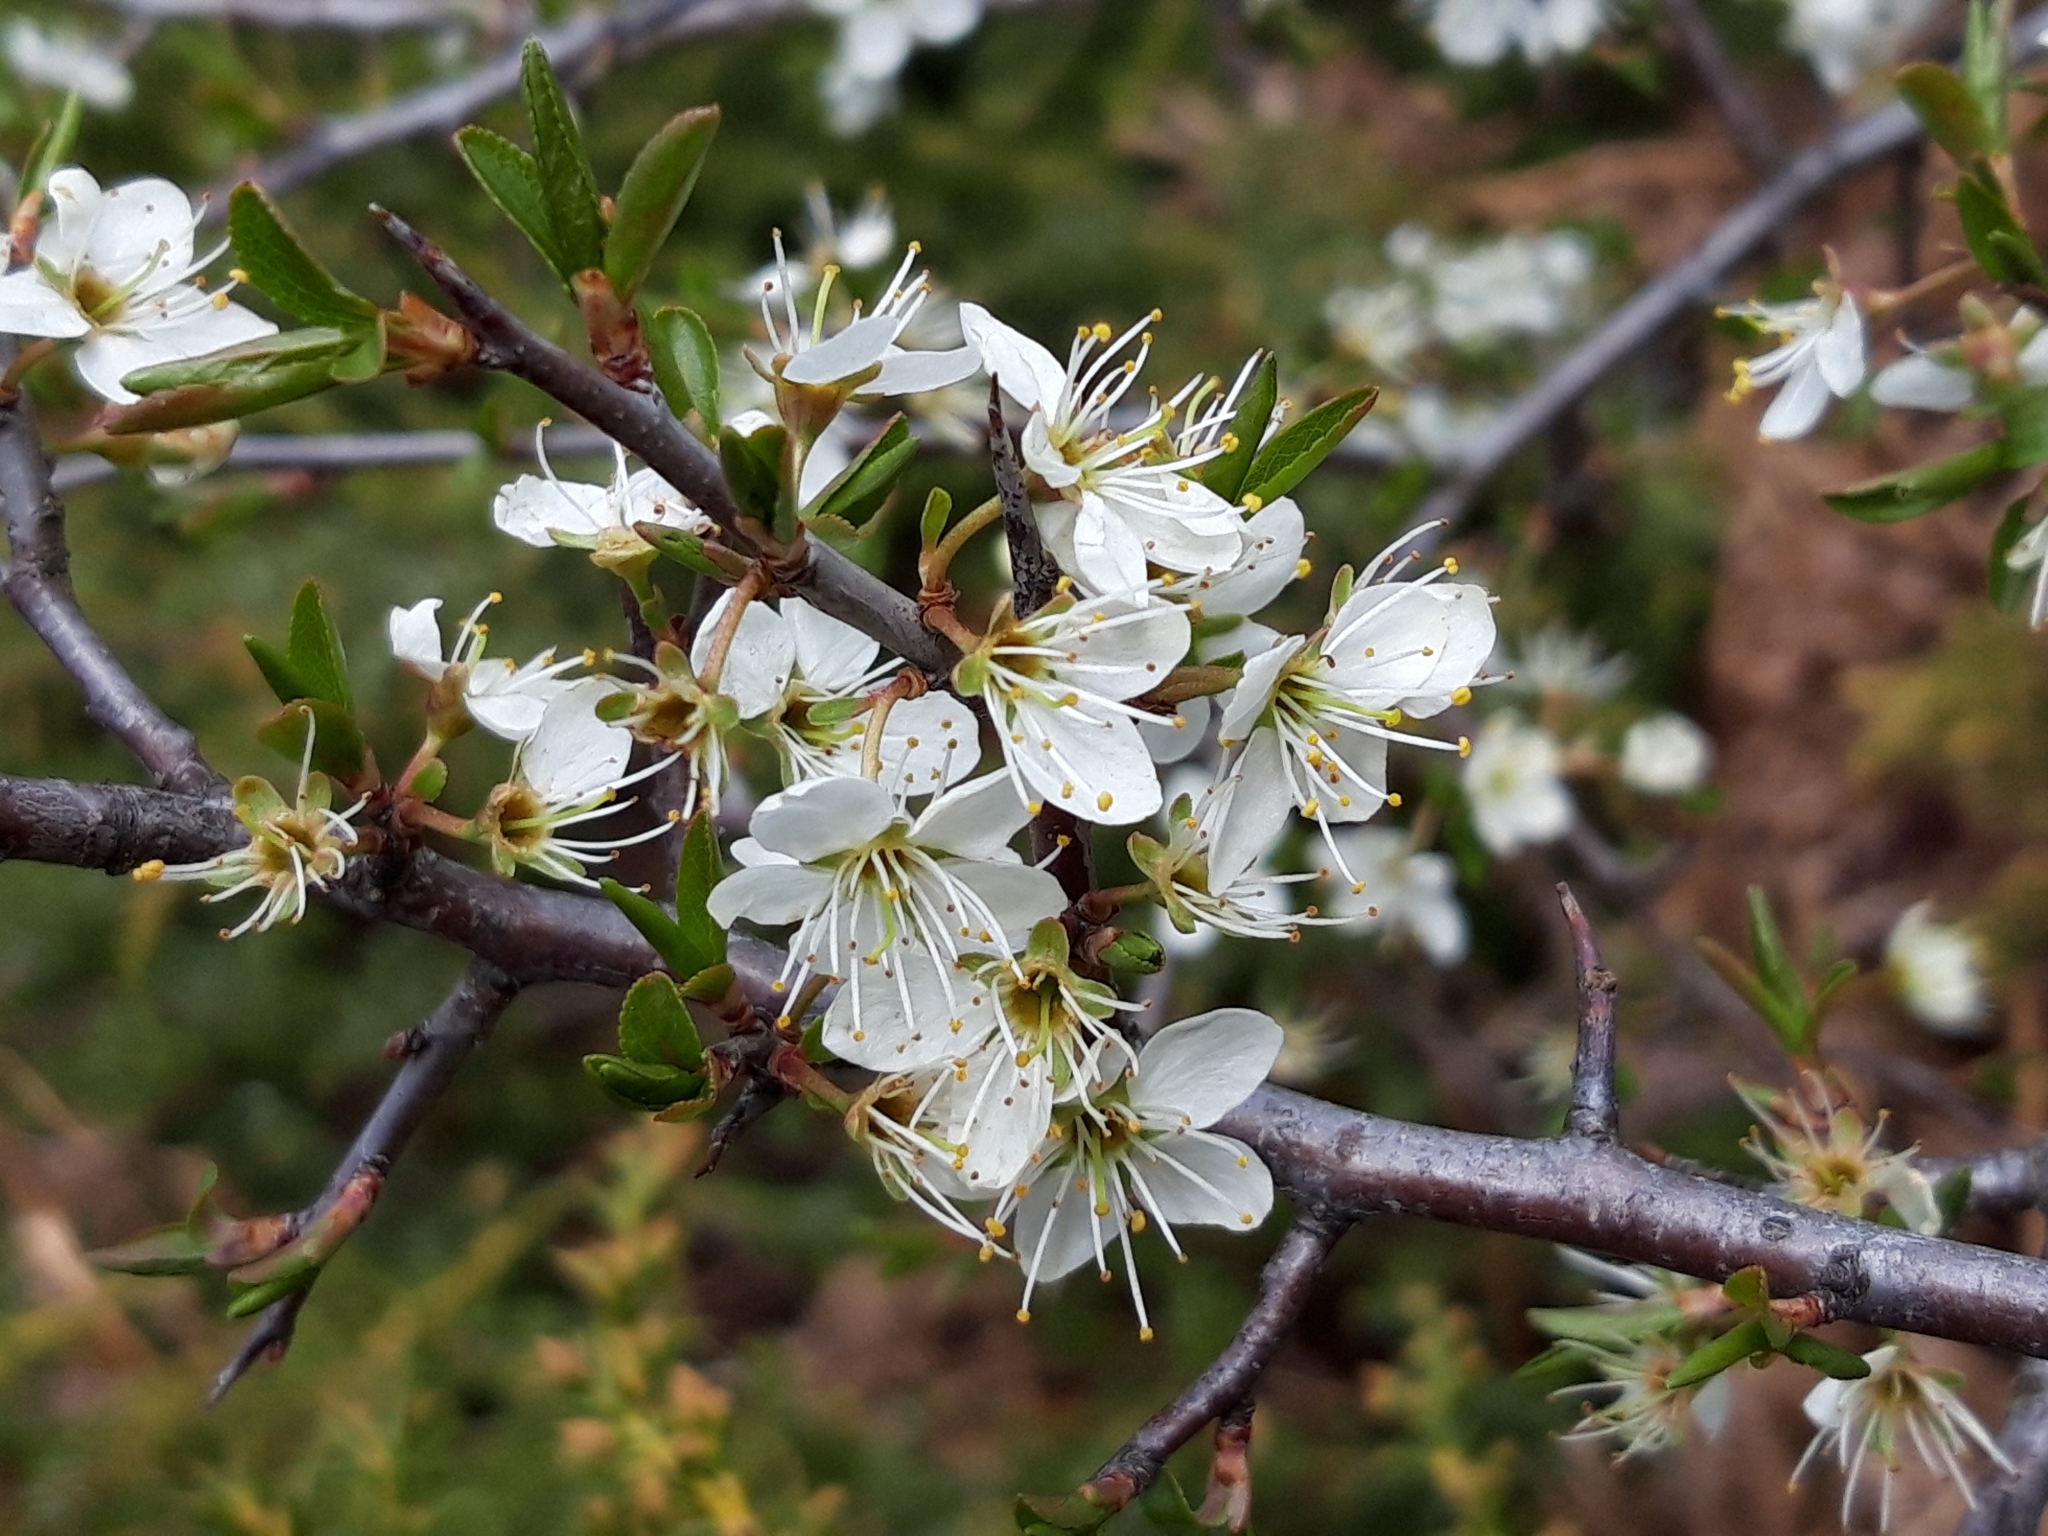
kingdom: Plantae
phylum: Tracheophyta
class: Magnoliopsida
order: Rosales
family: Rosaceae
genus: Prunus
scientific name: Prunus spinosa
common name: Blackthorn
